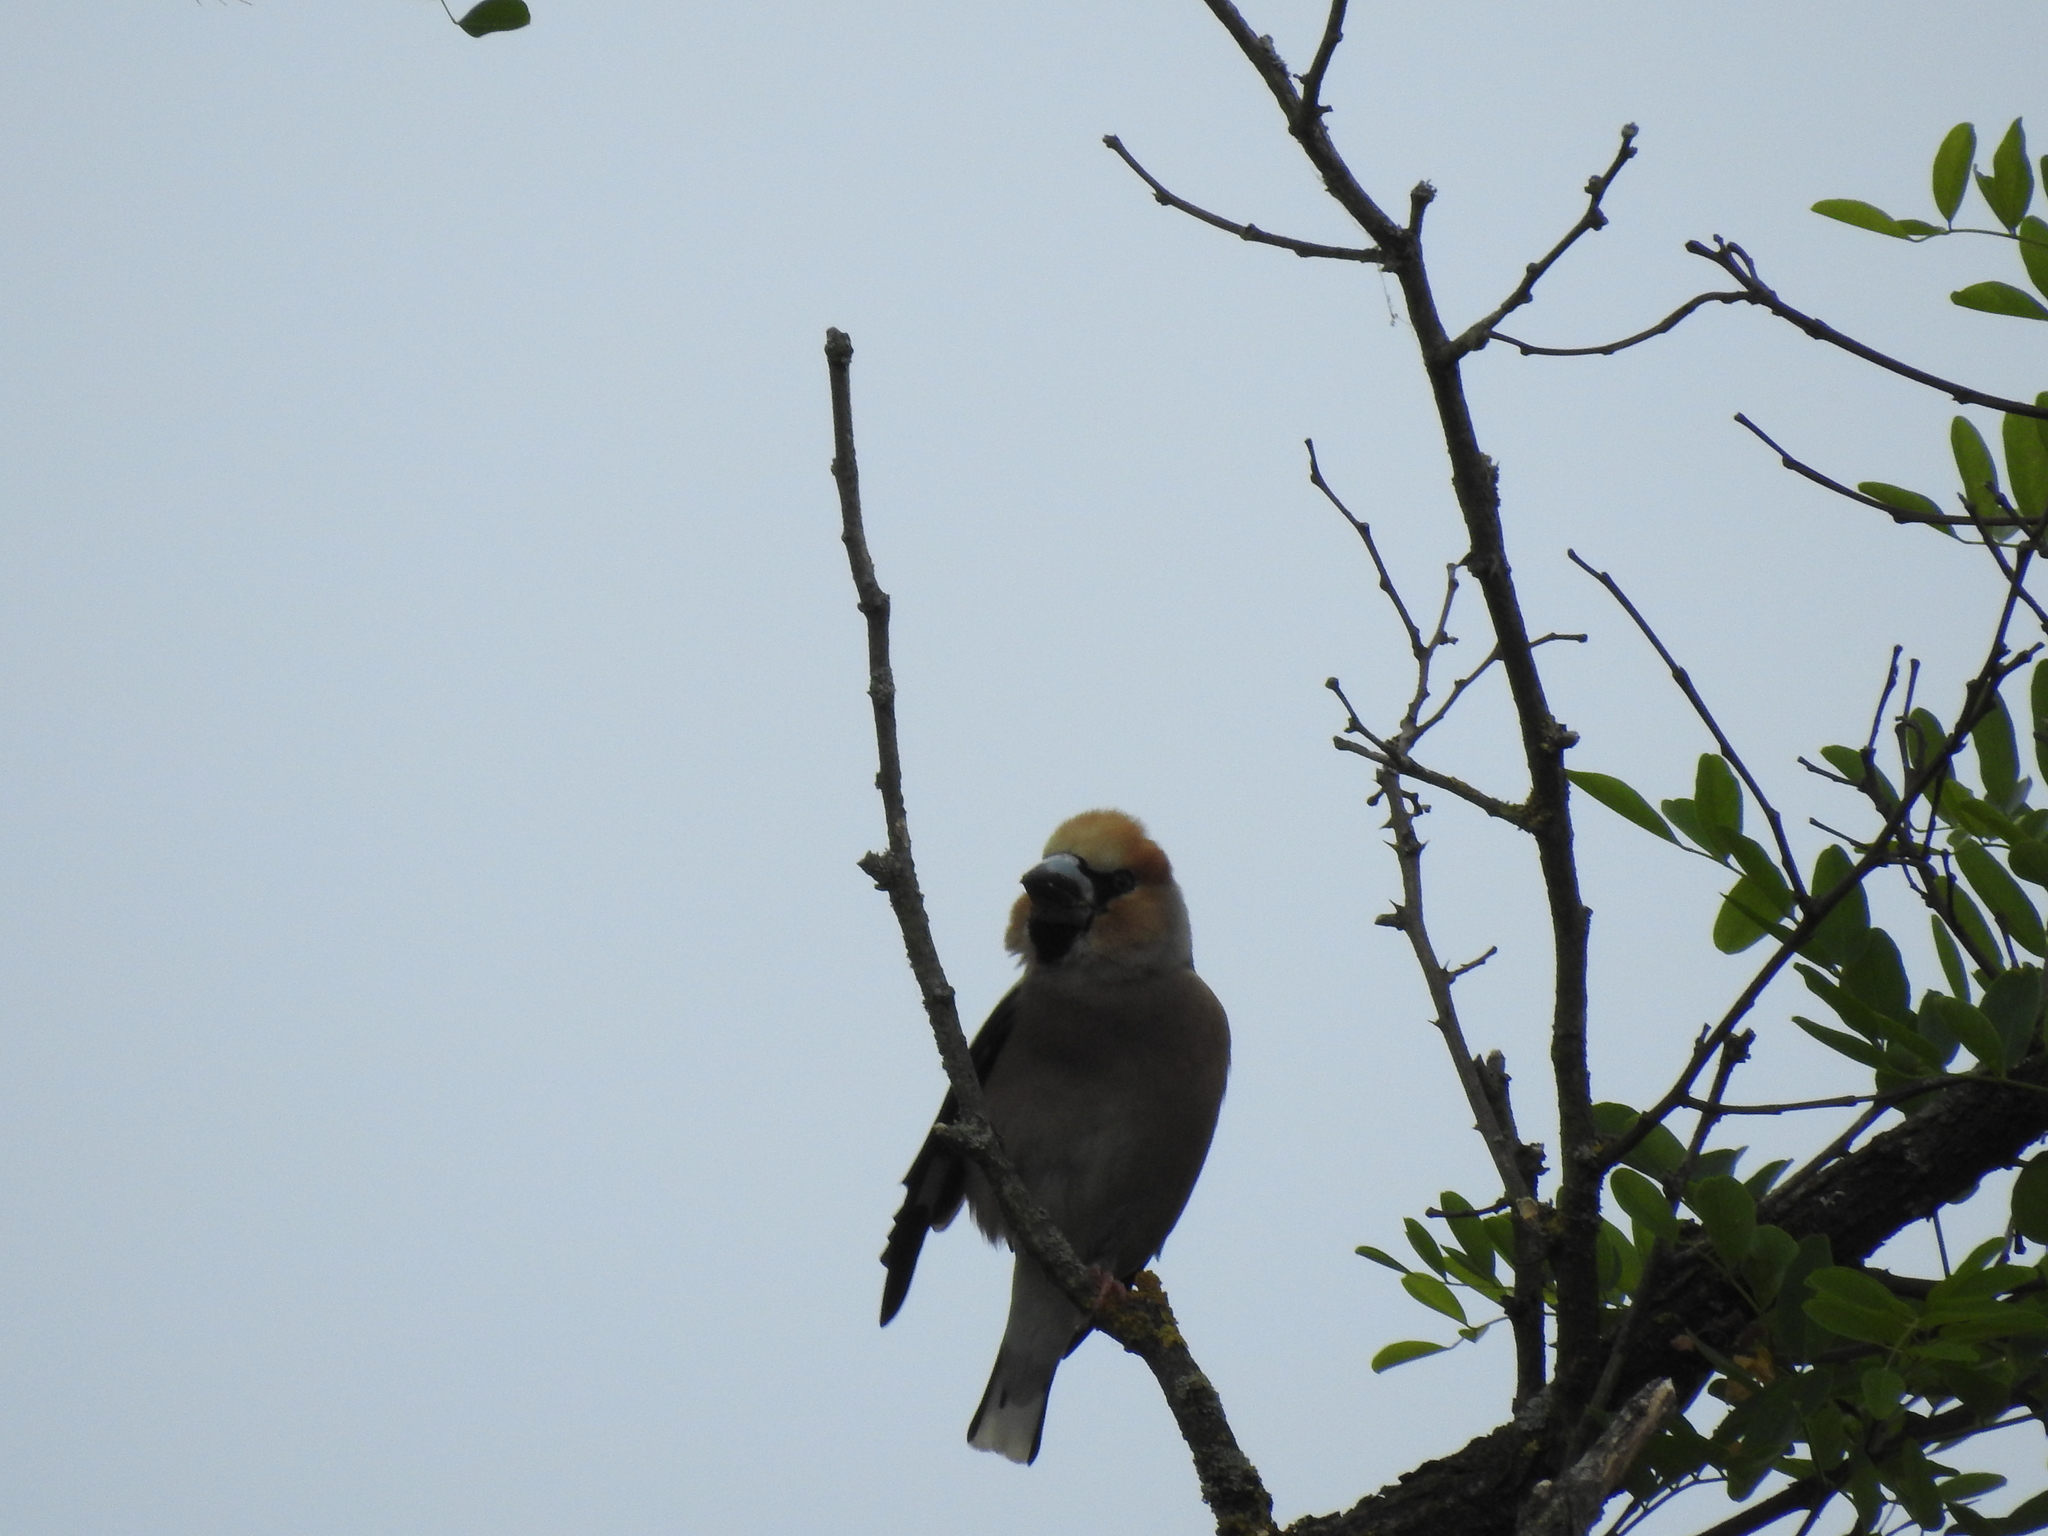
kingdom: Animalia
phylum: Chordata
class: Aves
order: Passeriformes
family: Fringillidae
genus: Coccothraustes
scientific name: Coccothraustes coccothraustes
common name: Hawfinch
